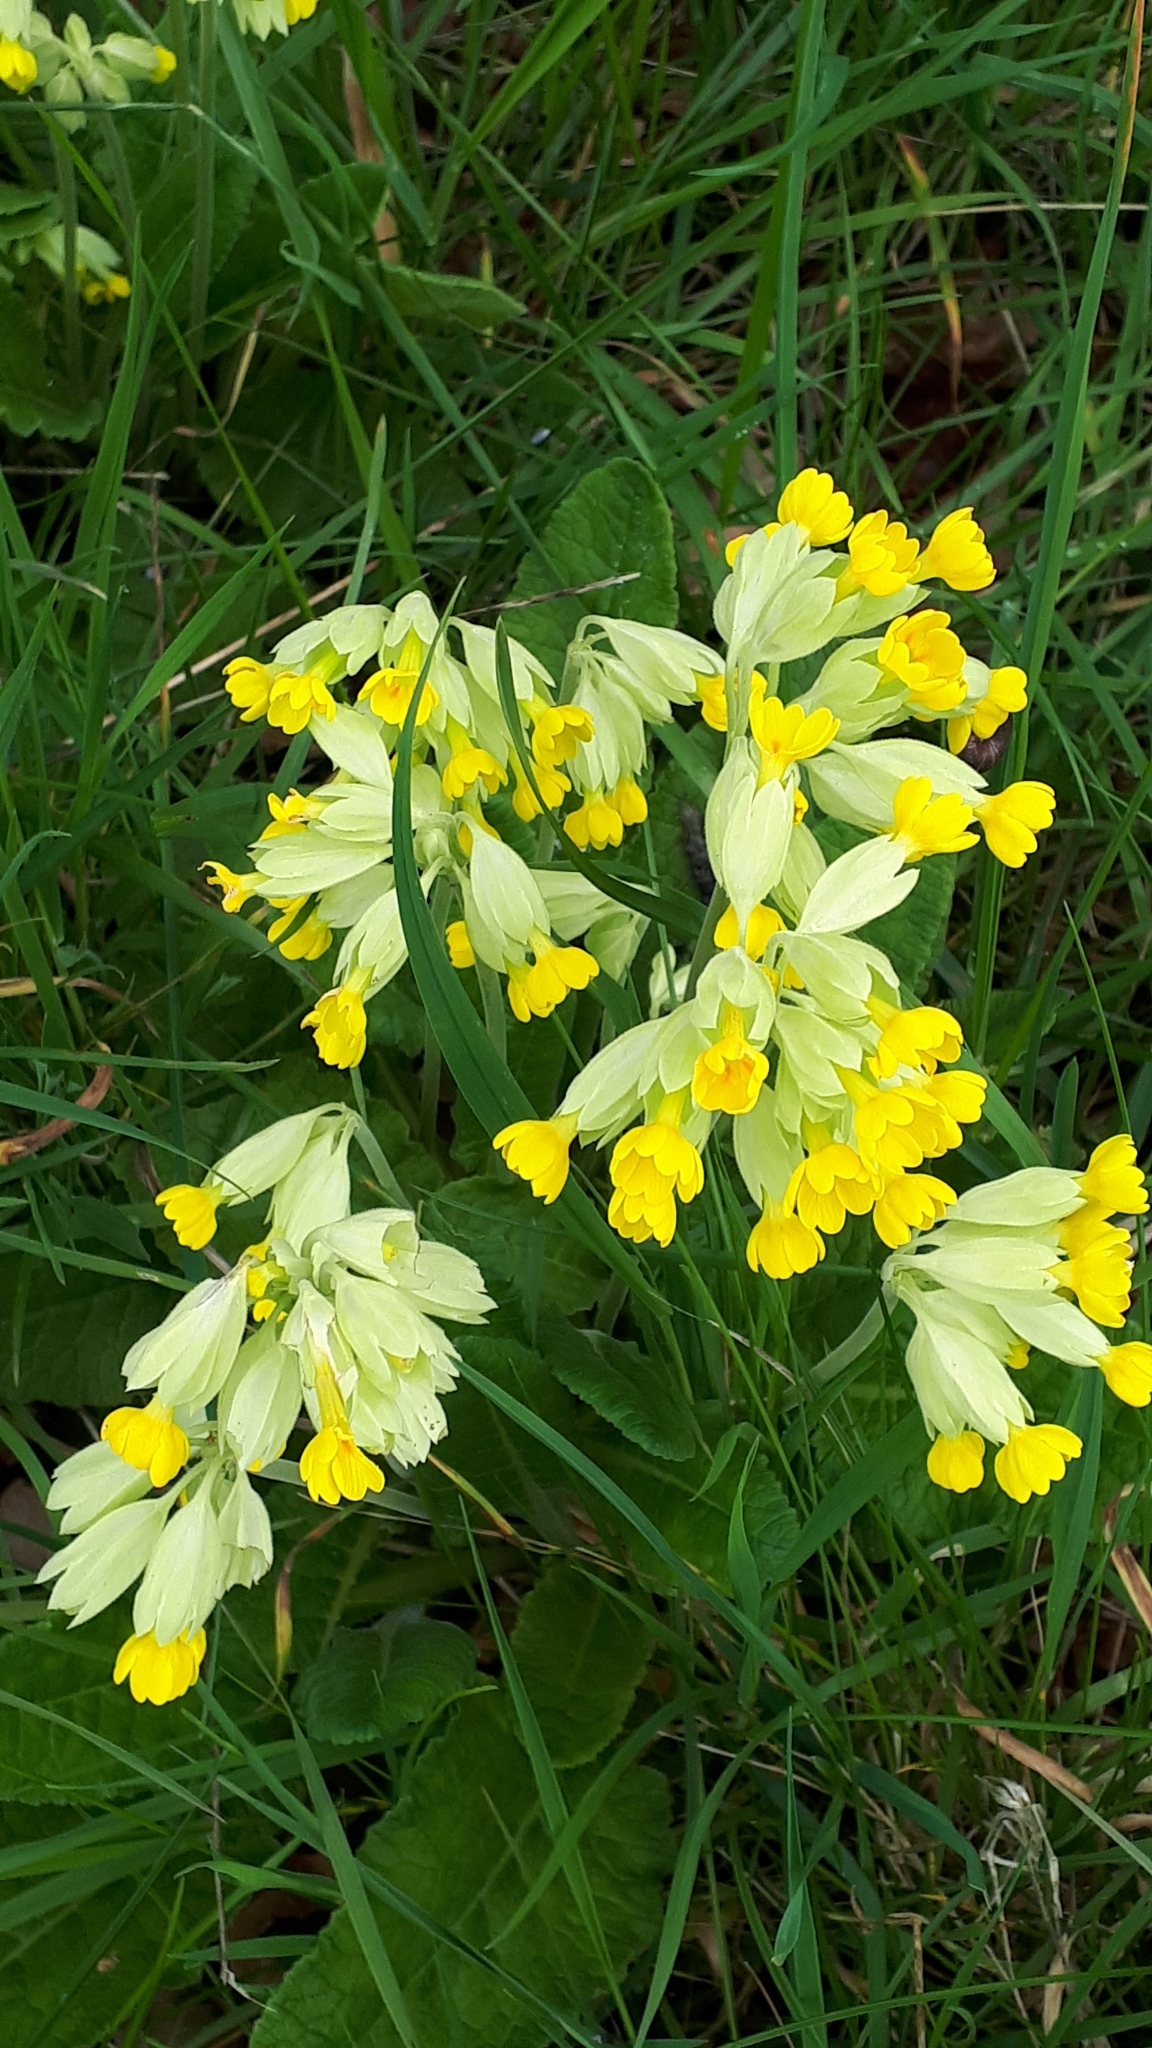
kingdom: Plantae
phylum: Tracheophyta
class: Magnoliopsida
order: Ericales
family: Primulaceae
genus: Primula
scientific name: Primula veris
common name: Cowslip
